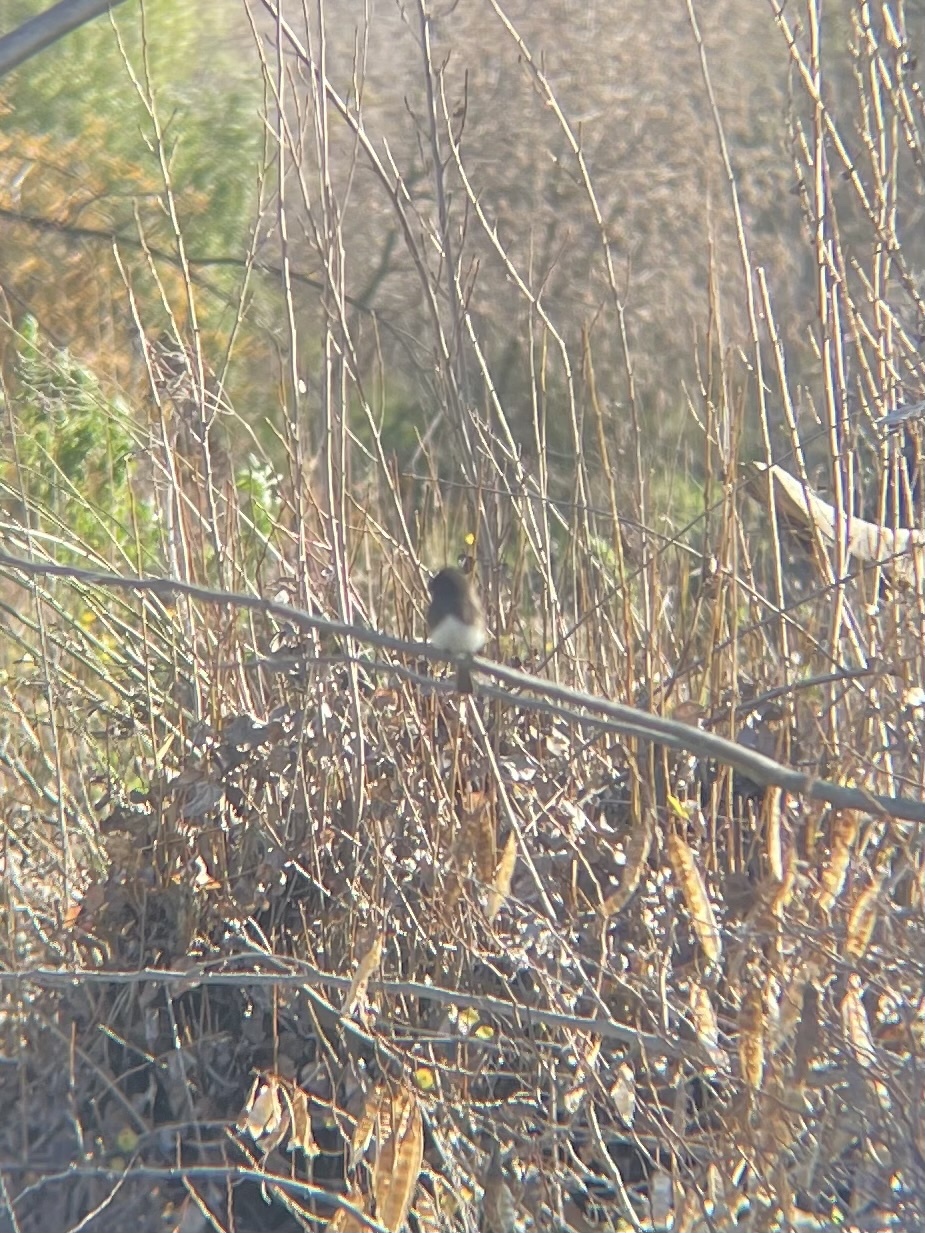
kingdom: Animalia
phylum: Chordata
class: Aves
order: Passeriformes
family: Tyrannidae
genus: Sayornis
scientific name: Sayornis nigricans
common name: Black phoebe
